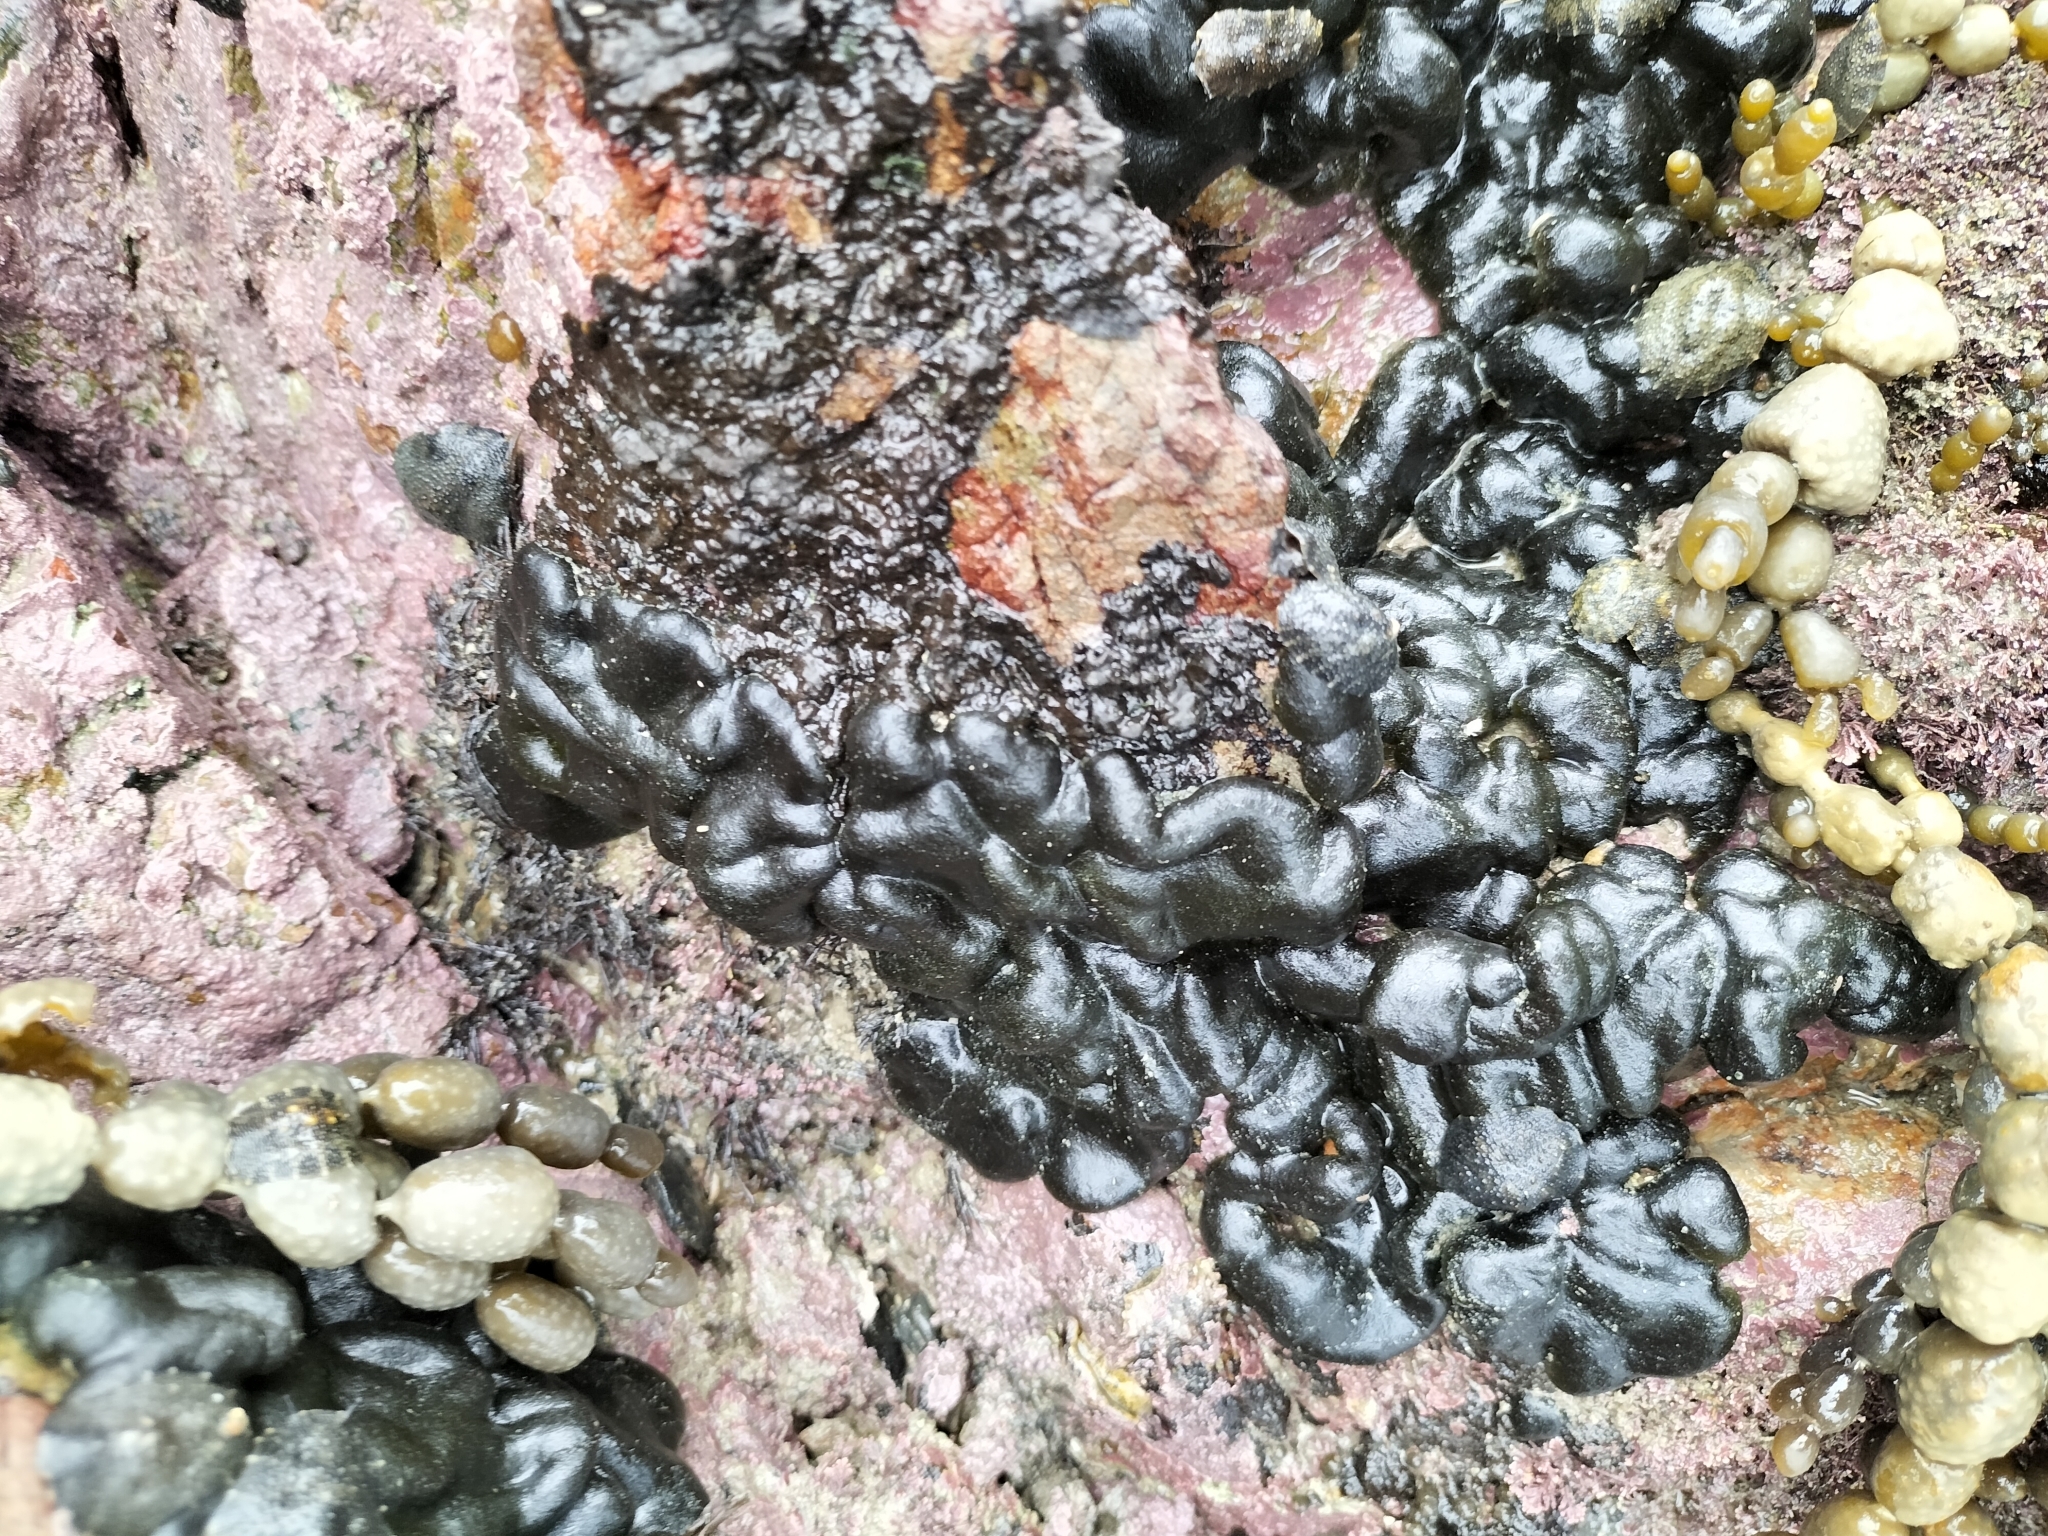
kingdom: Plantae
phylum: Chlorophyta
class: Ulvophyceae
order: Bryopsidales
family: Codiaceae
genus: Codium
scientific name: Codium convolutum
